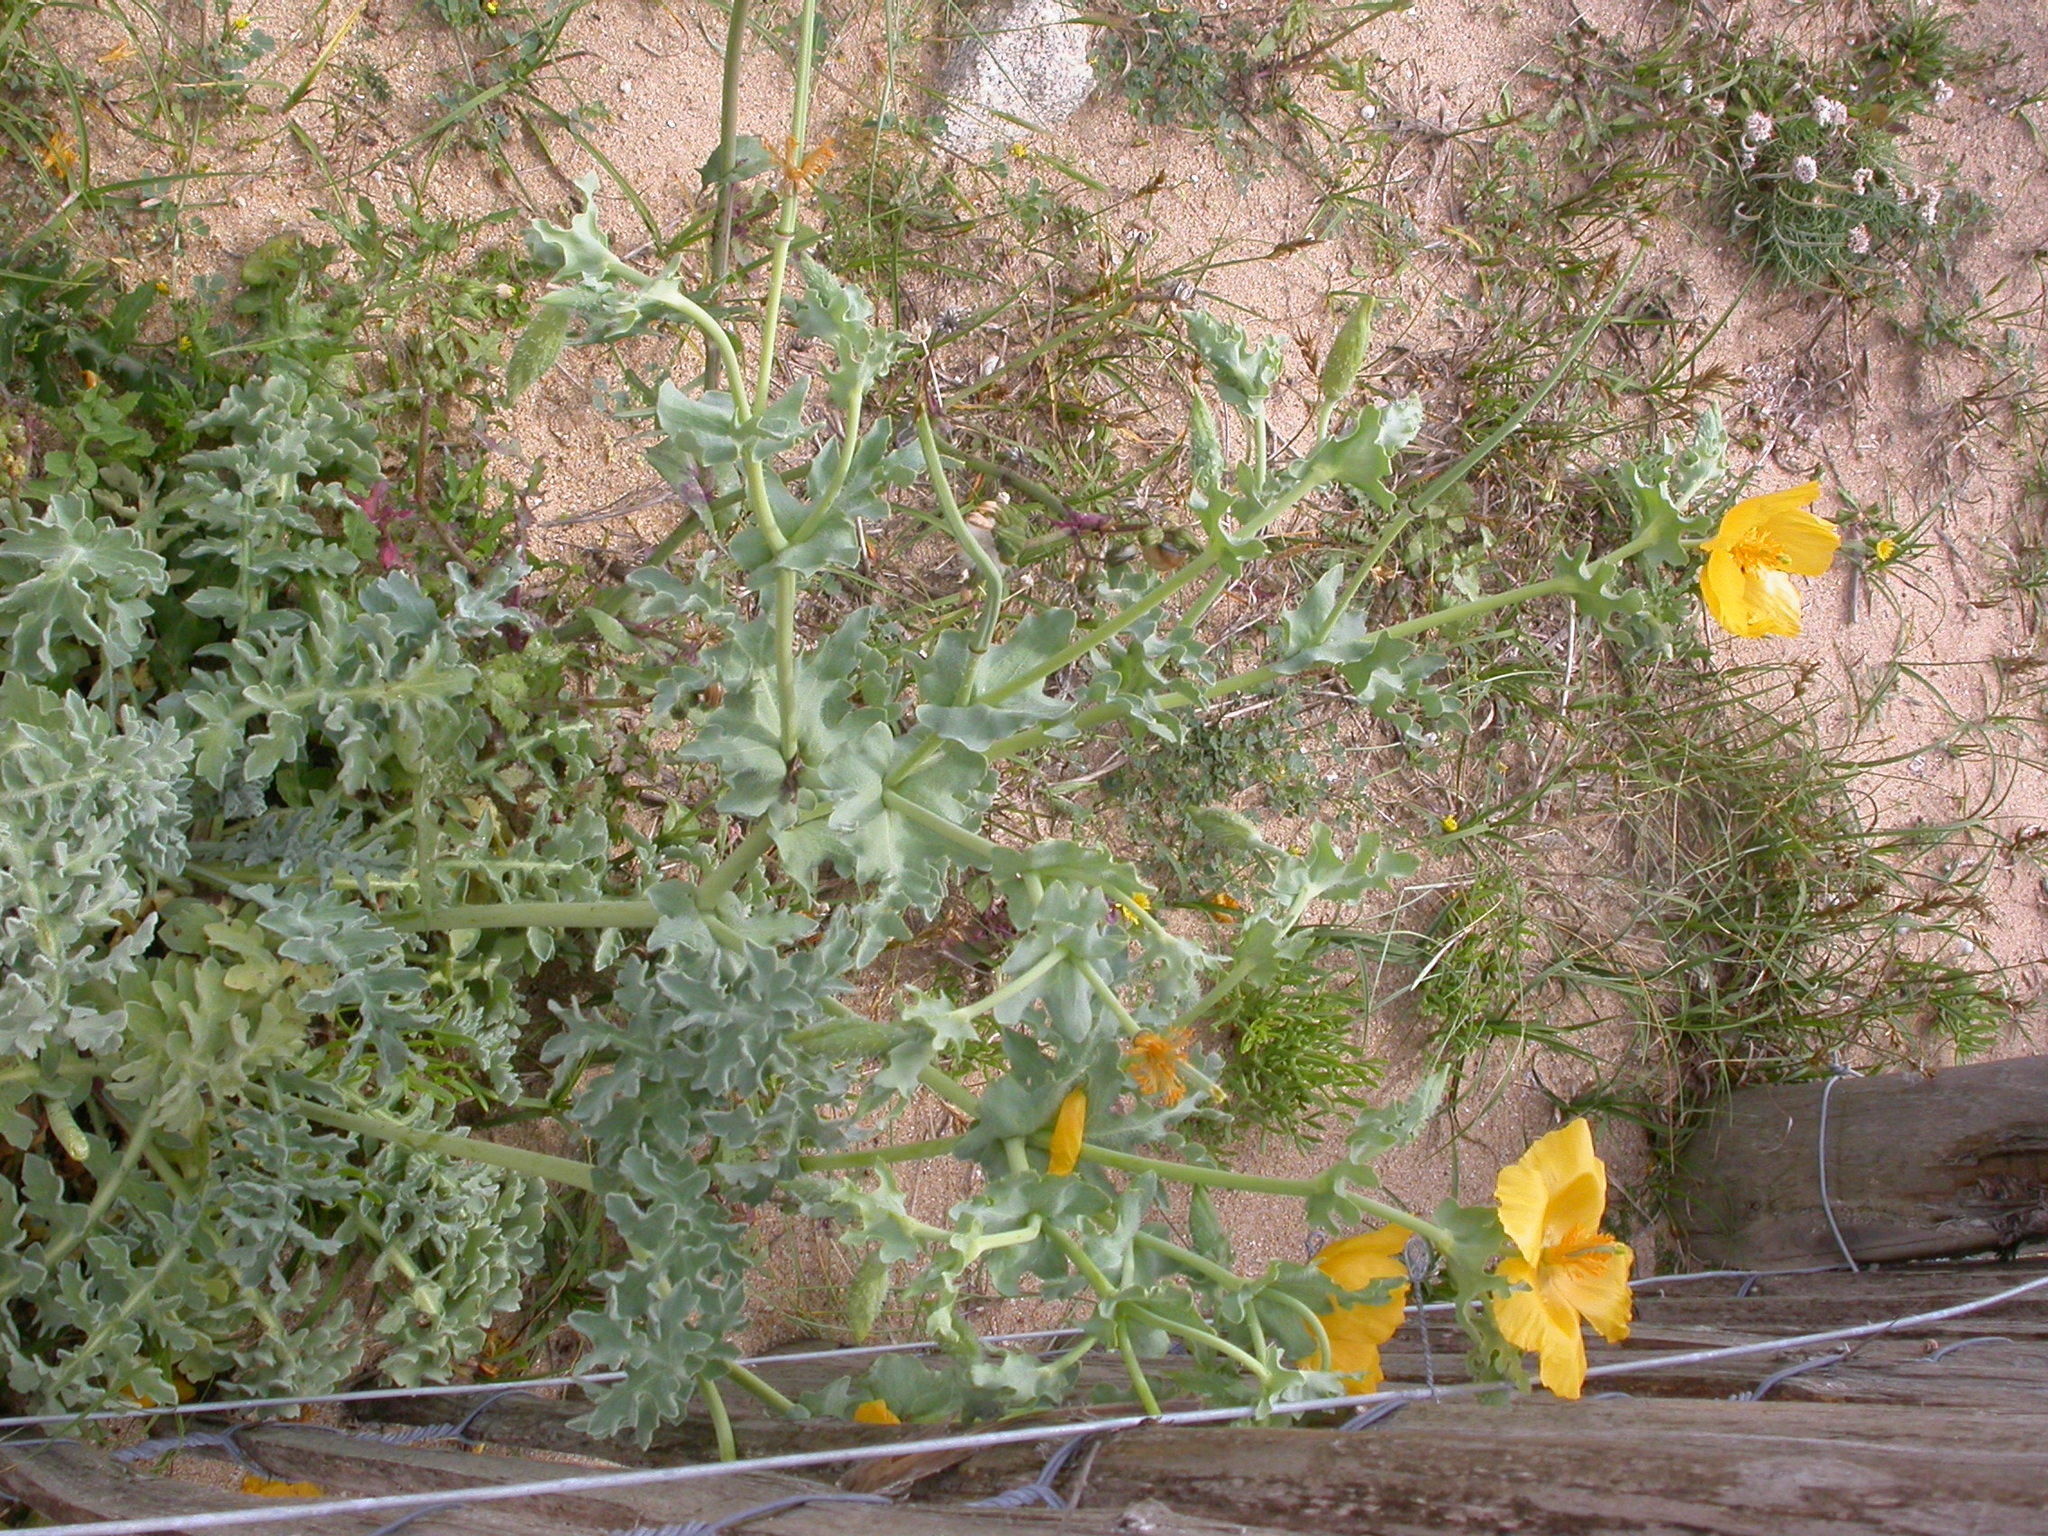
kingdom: Plantae
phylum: Tracheophyta
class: Magnoliopsida
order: Ranunculales
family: Papaveraceae
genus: Glaucium
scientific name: Glaucium flavum
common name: Yellow horned-poppy
